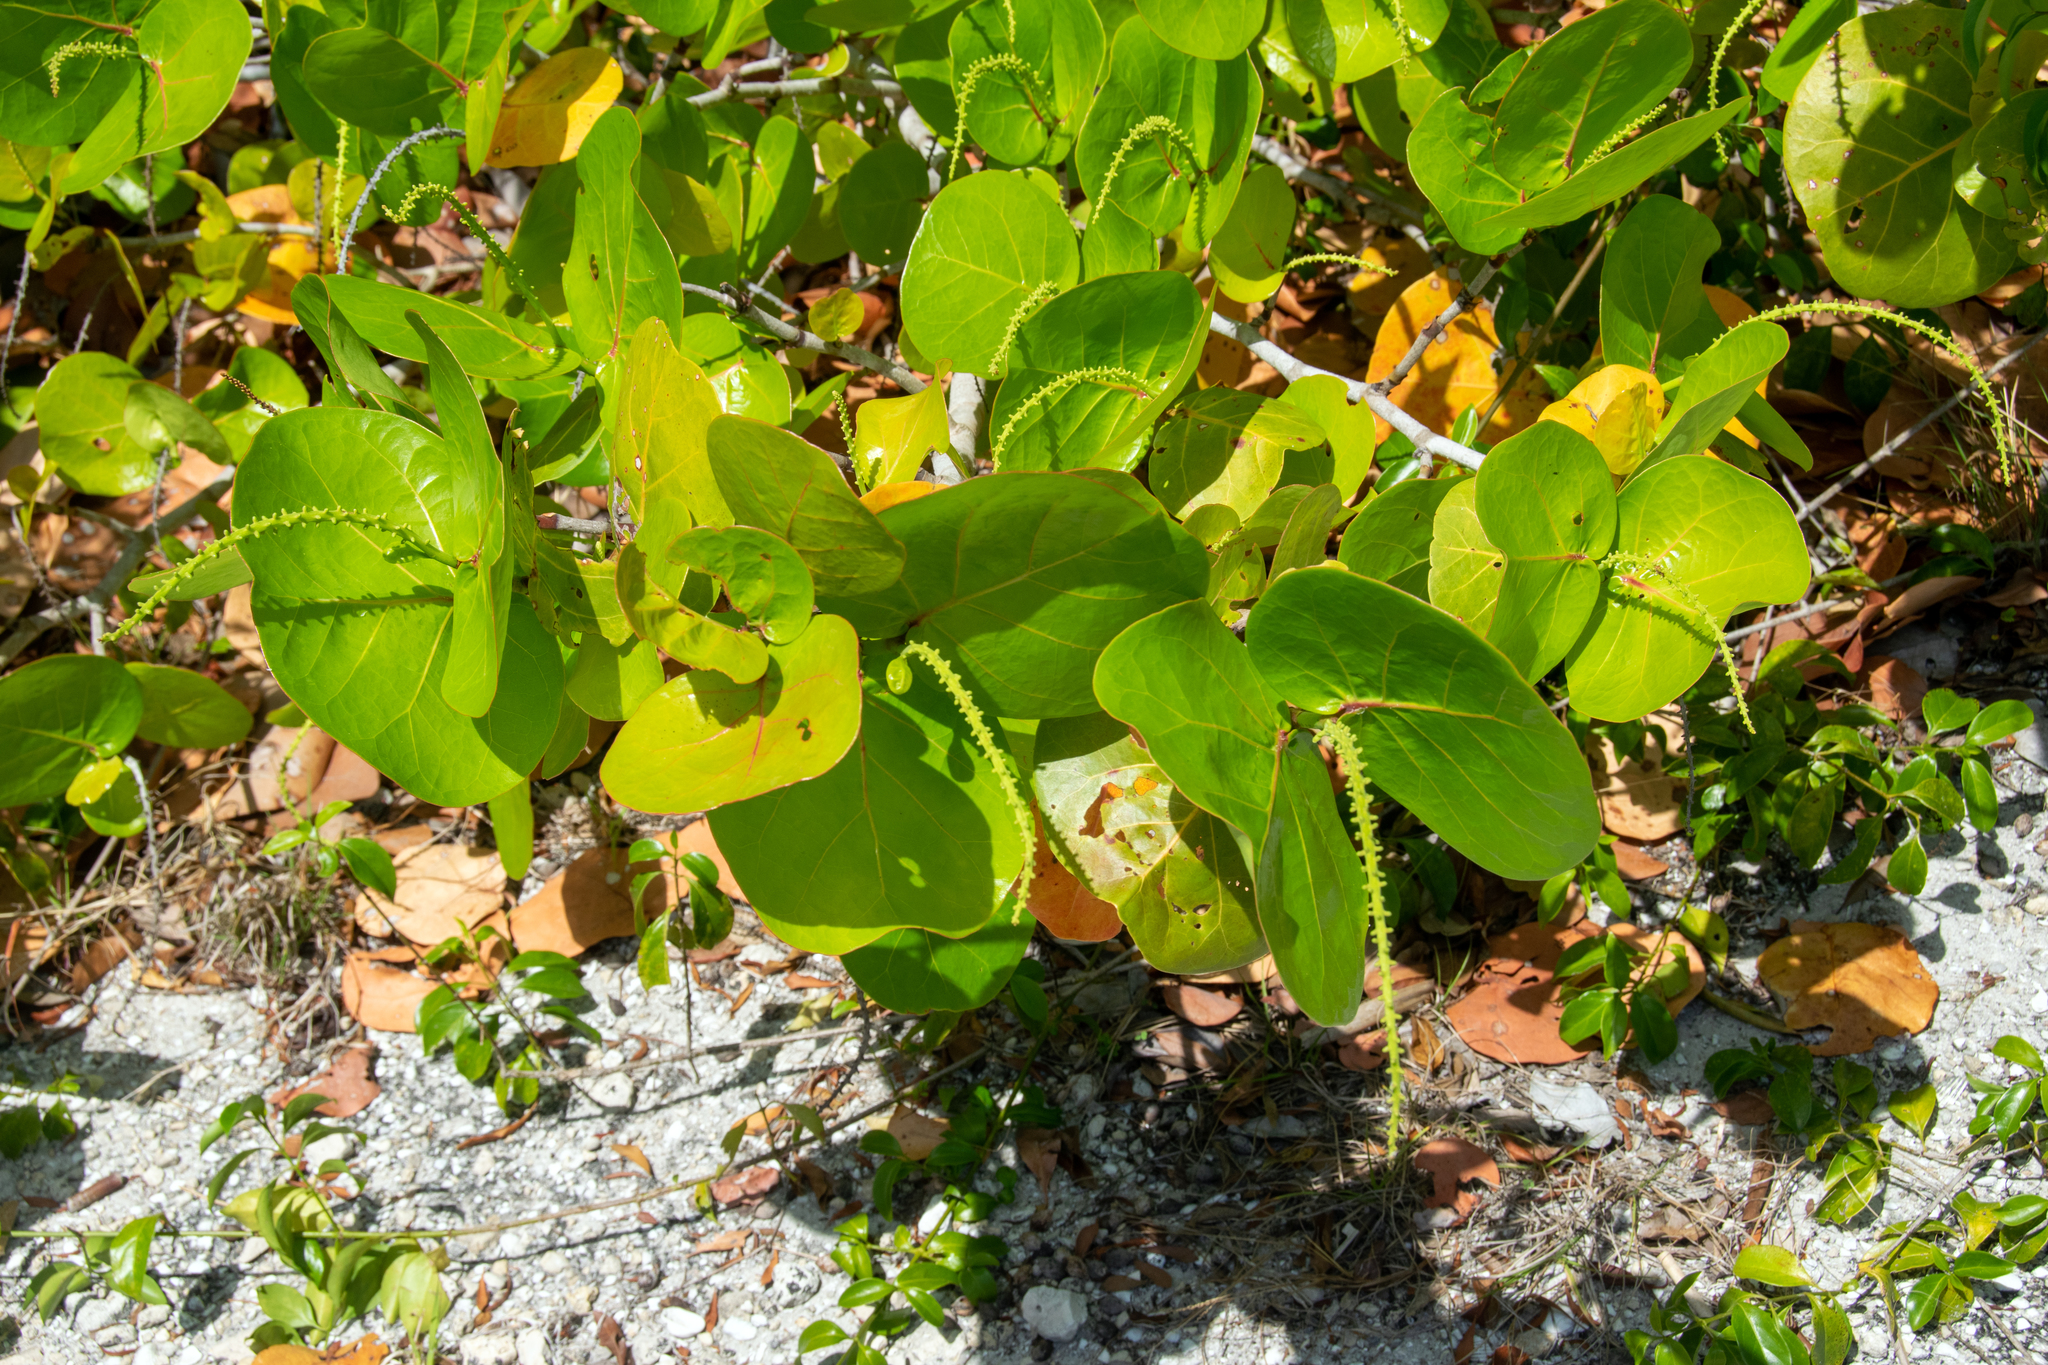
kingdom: Plantae
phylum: Tracheophyta
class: Magnoliopsida
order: Caryophyllales
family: Polygonaceae
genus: Coccoloba
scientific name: Coccoloba uvifera
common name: Seagrape
